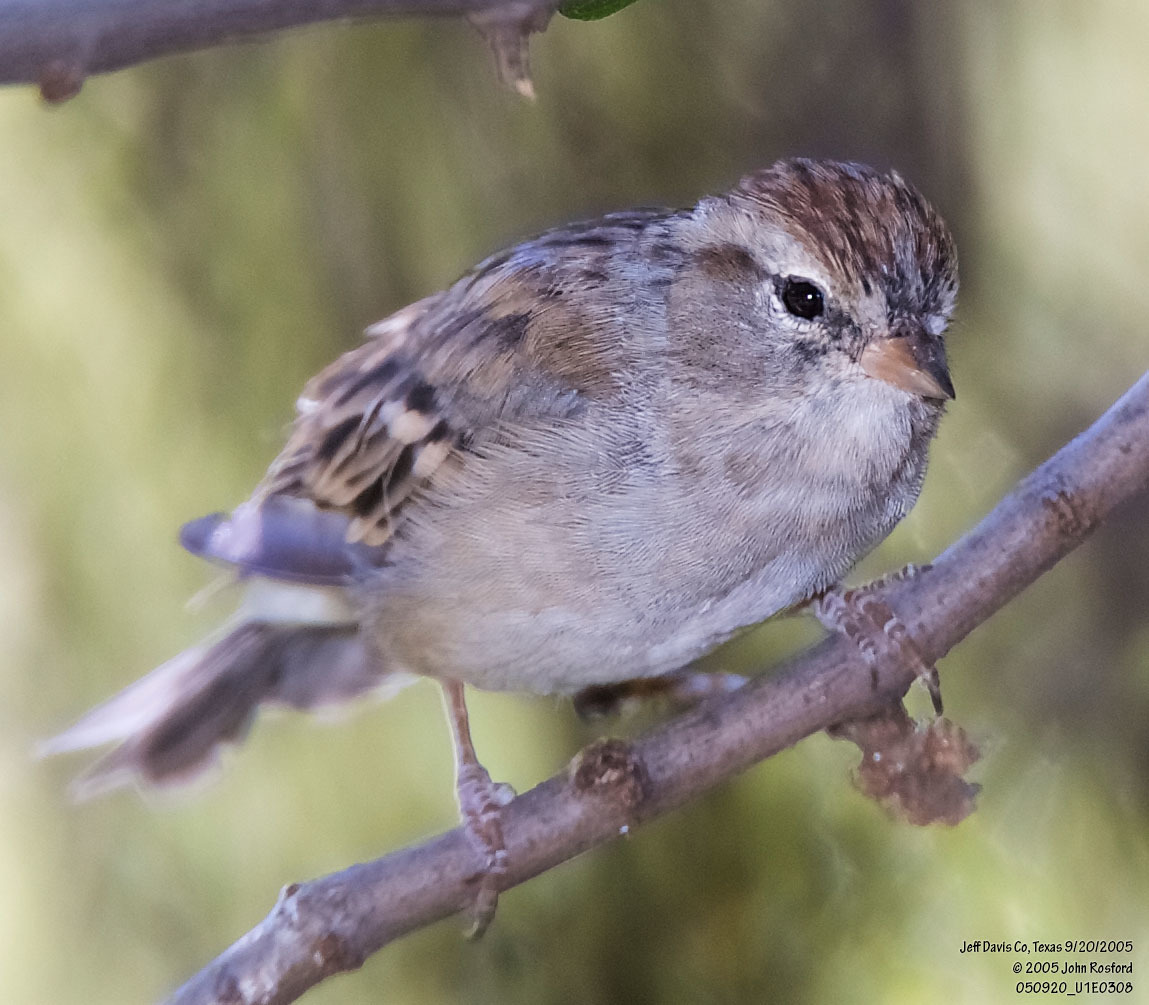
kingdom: Animalia
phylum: Chordata
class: Aves
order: Passeriformes
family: Passerellidae
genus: Spizella
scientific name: Spizella passerina
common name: Chipping sparrow
